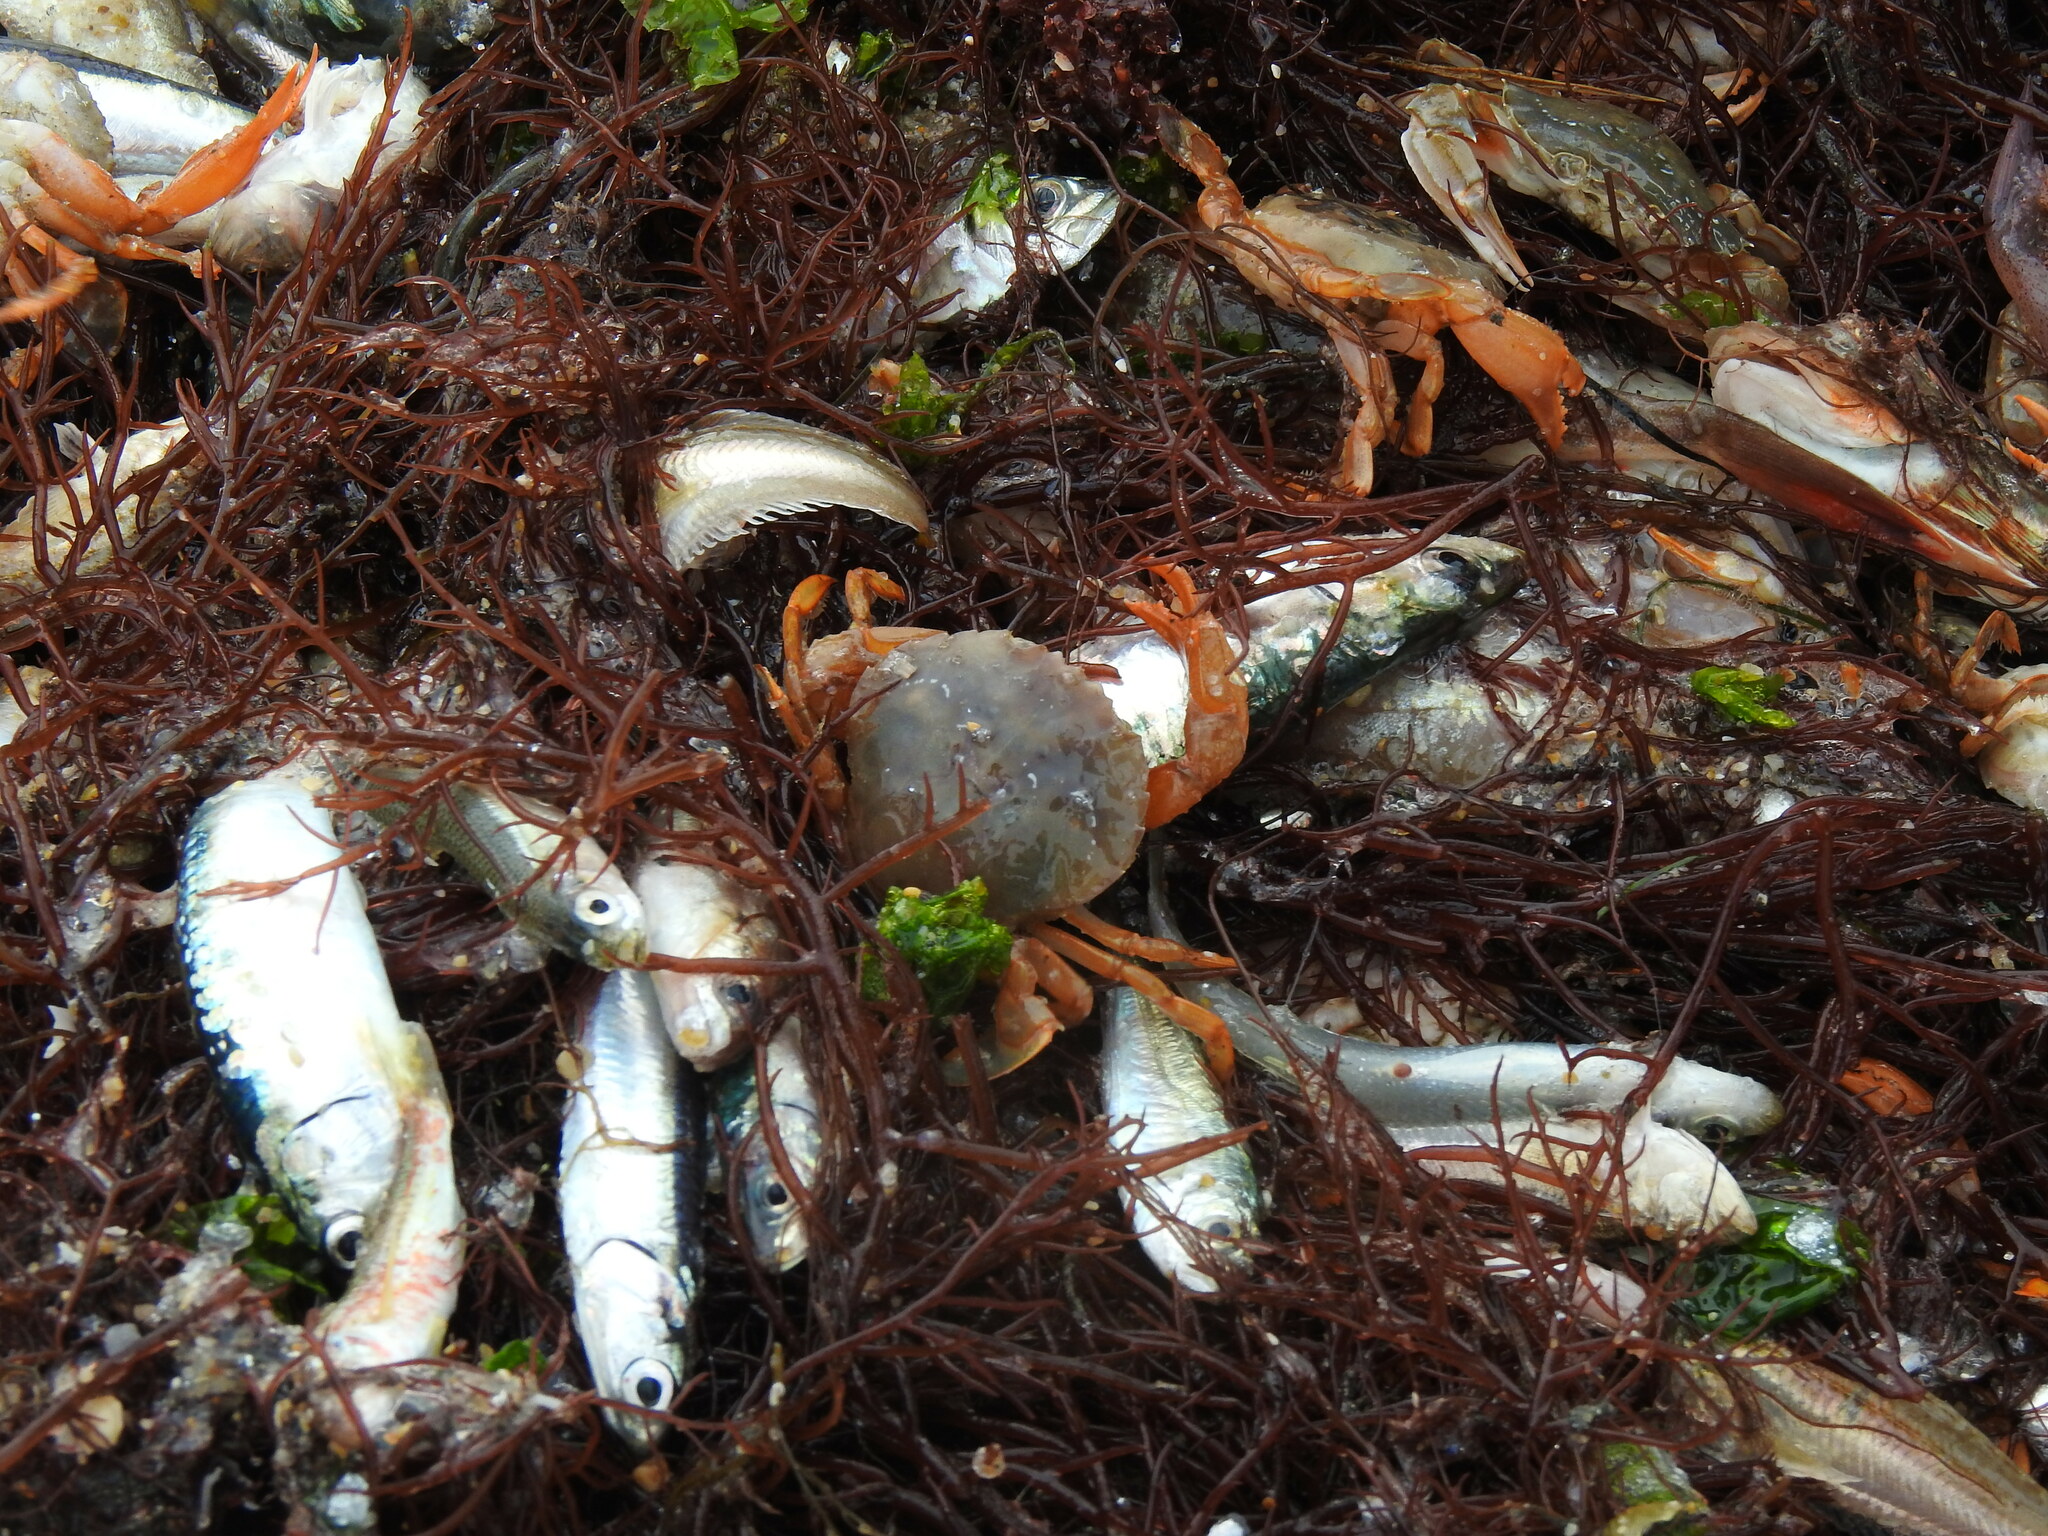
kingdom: Animalia
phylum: Arthropoda
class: Malacostraca
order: Decapoda
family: Polybiidae
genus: Polybius
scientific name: Polybius henslowii
